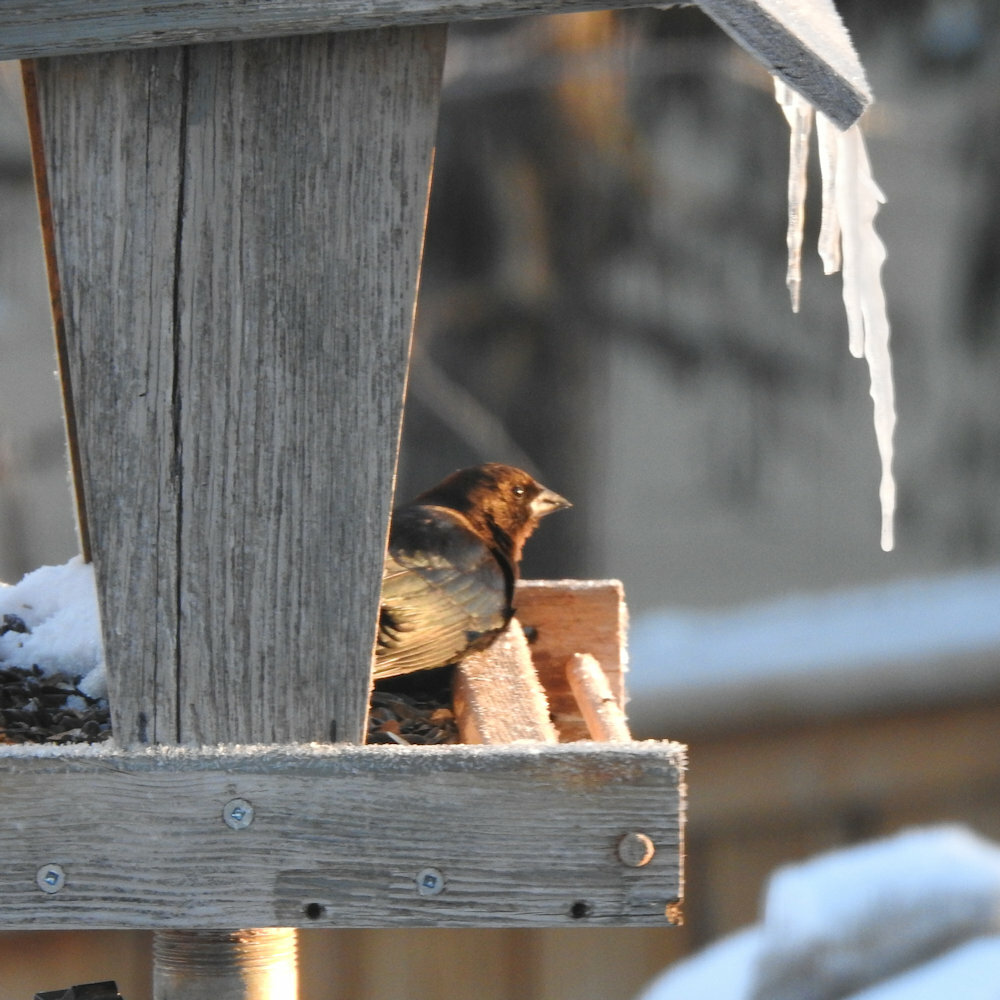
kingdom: Animalia
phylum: Chordata
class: Aves
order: Passeriformes
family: Icteridae
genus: Molothrus
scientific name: Molothrus ater
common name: Brown-headed cowbird
